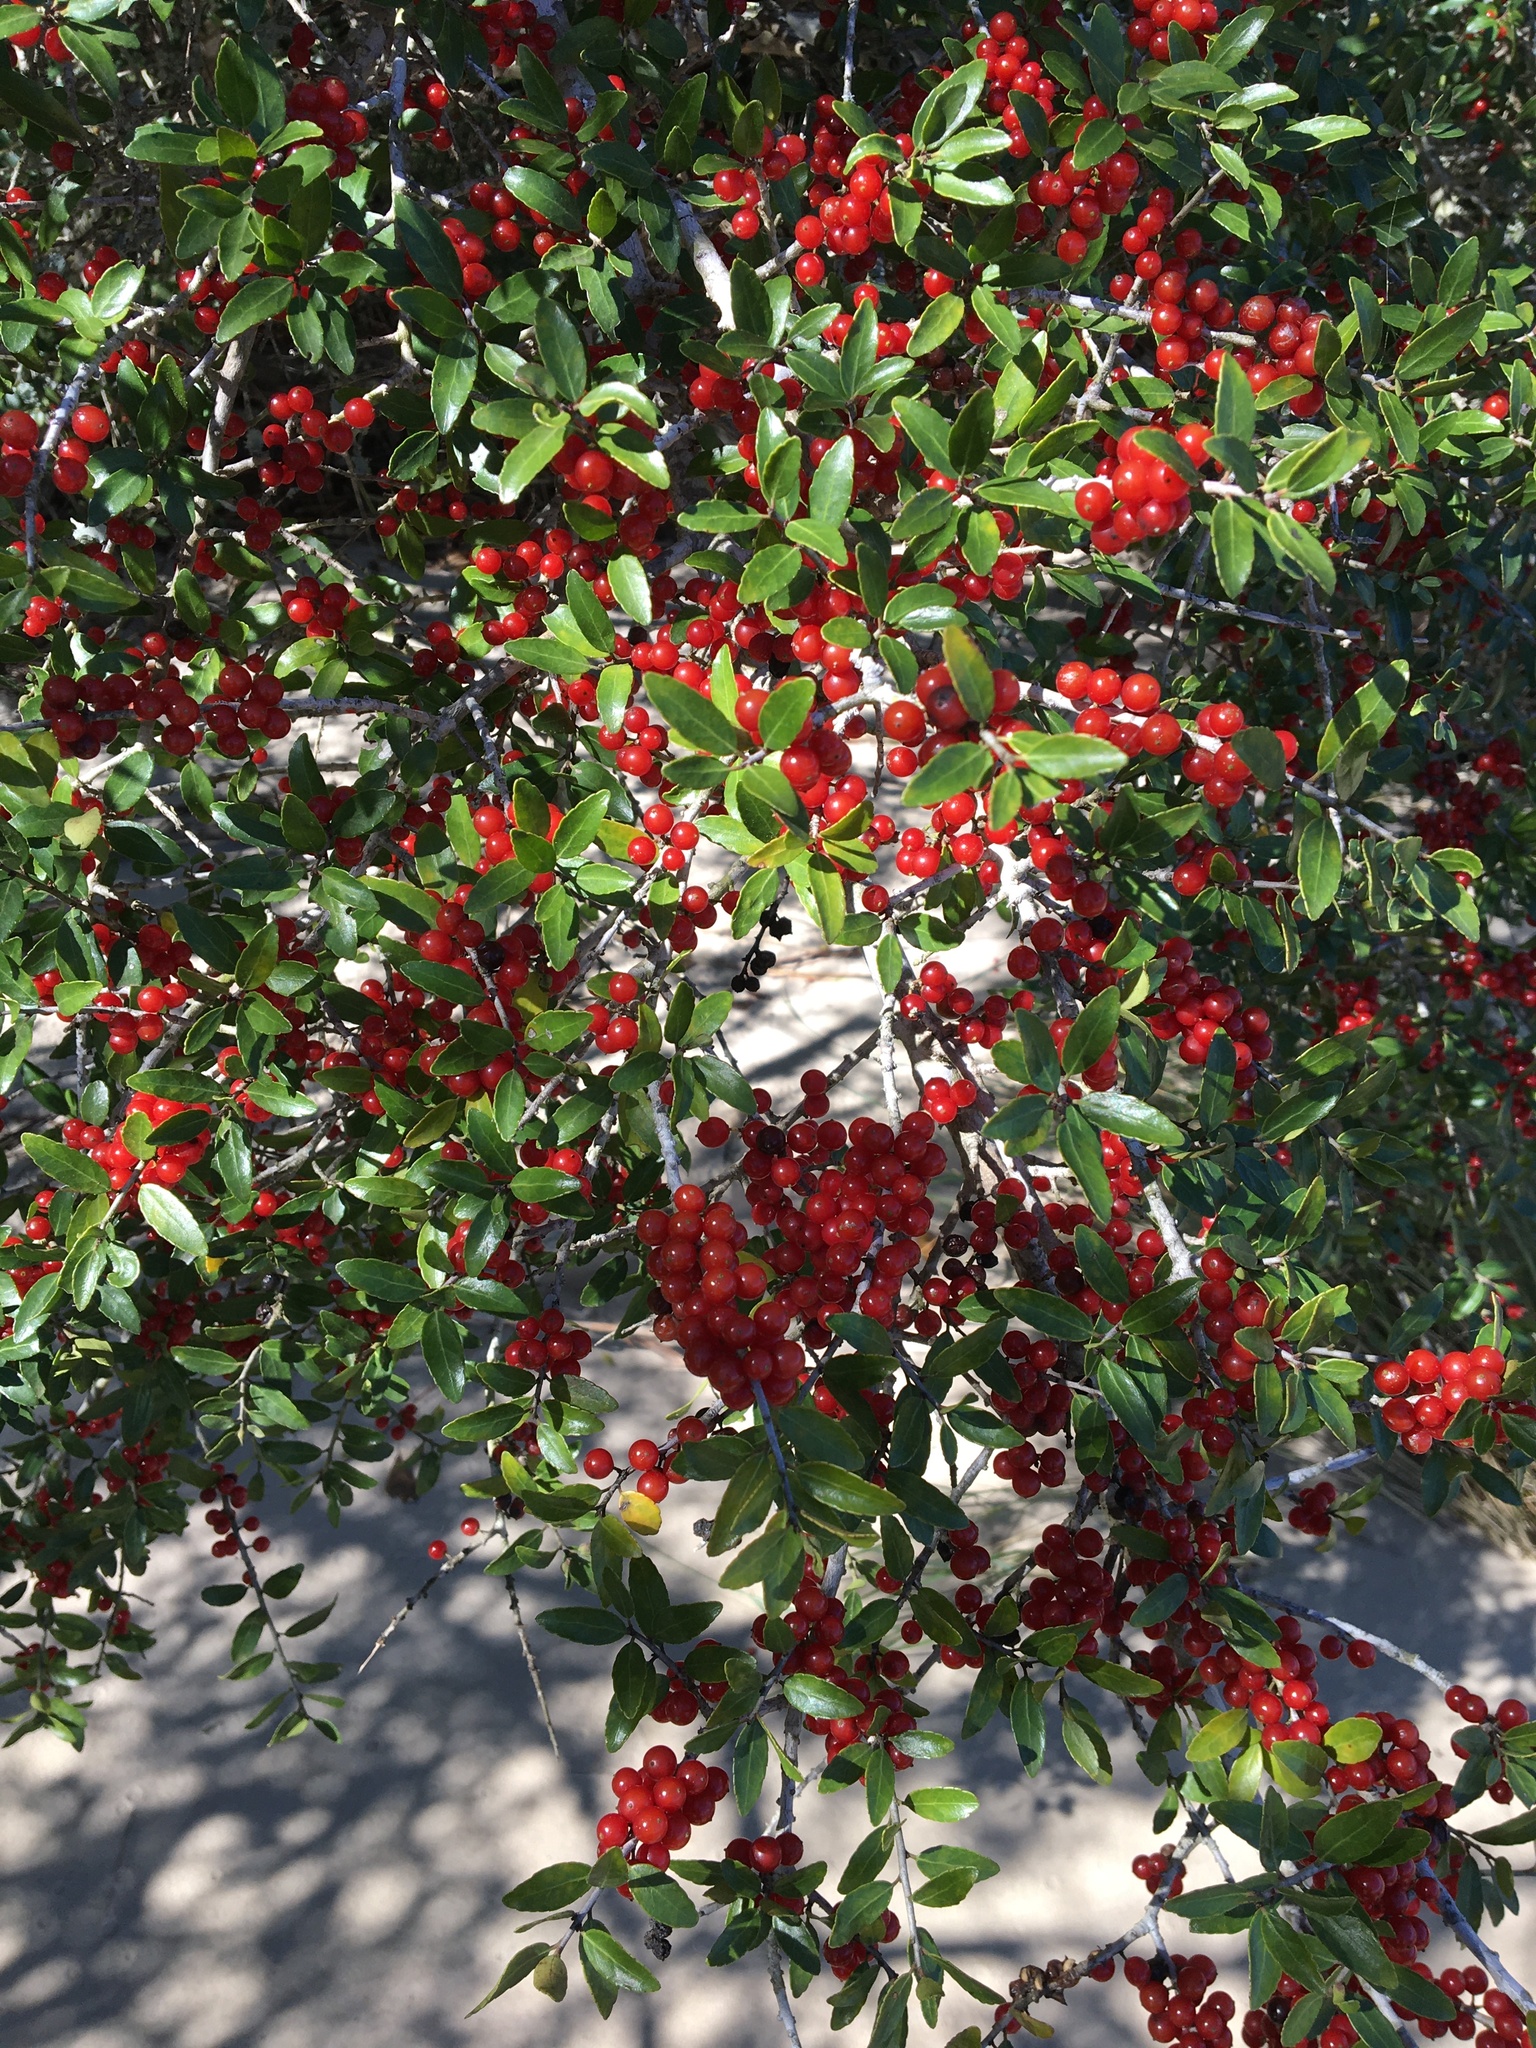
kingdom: Plantae
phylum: Tracheophyta
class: Magnoliopsida
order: Aquifoliales
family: Aquifoliaceae
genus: Ilex
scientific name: Ilex vomitoria
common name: Yaupon holly
